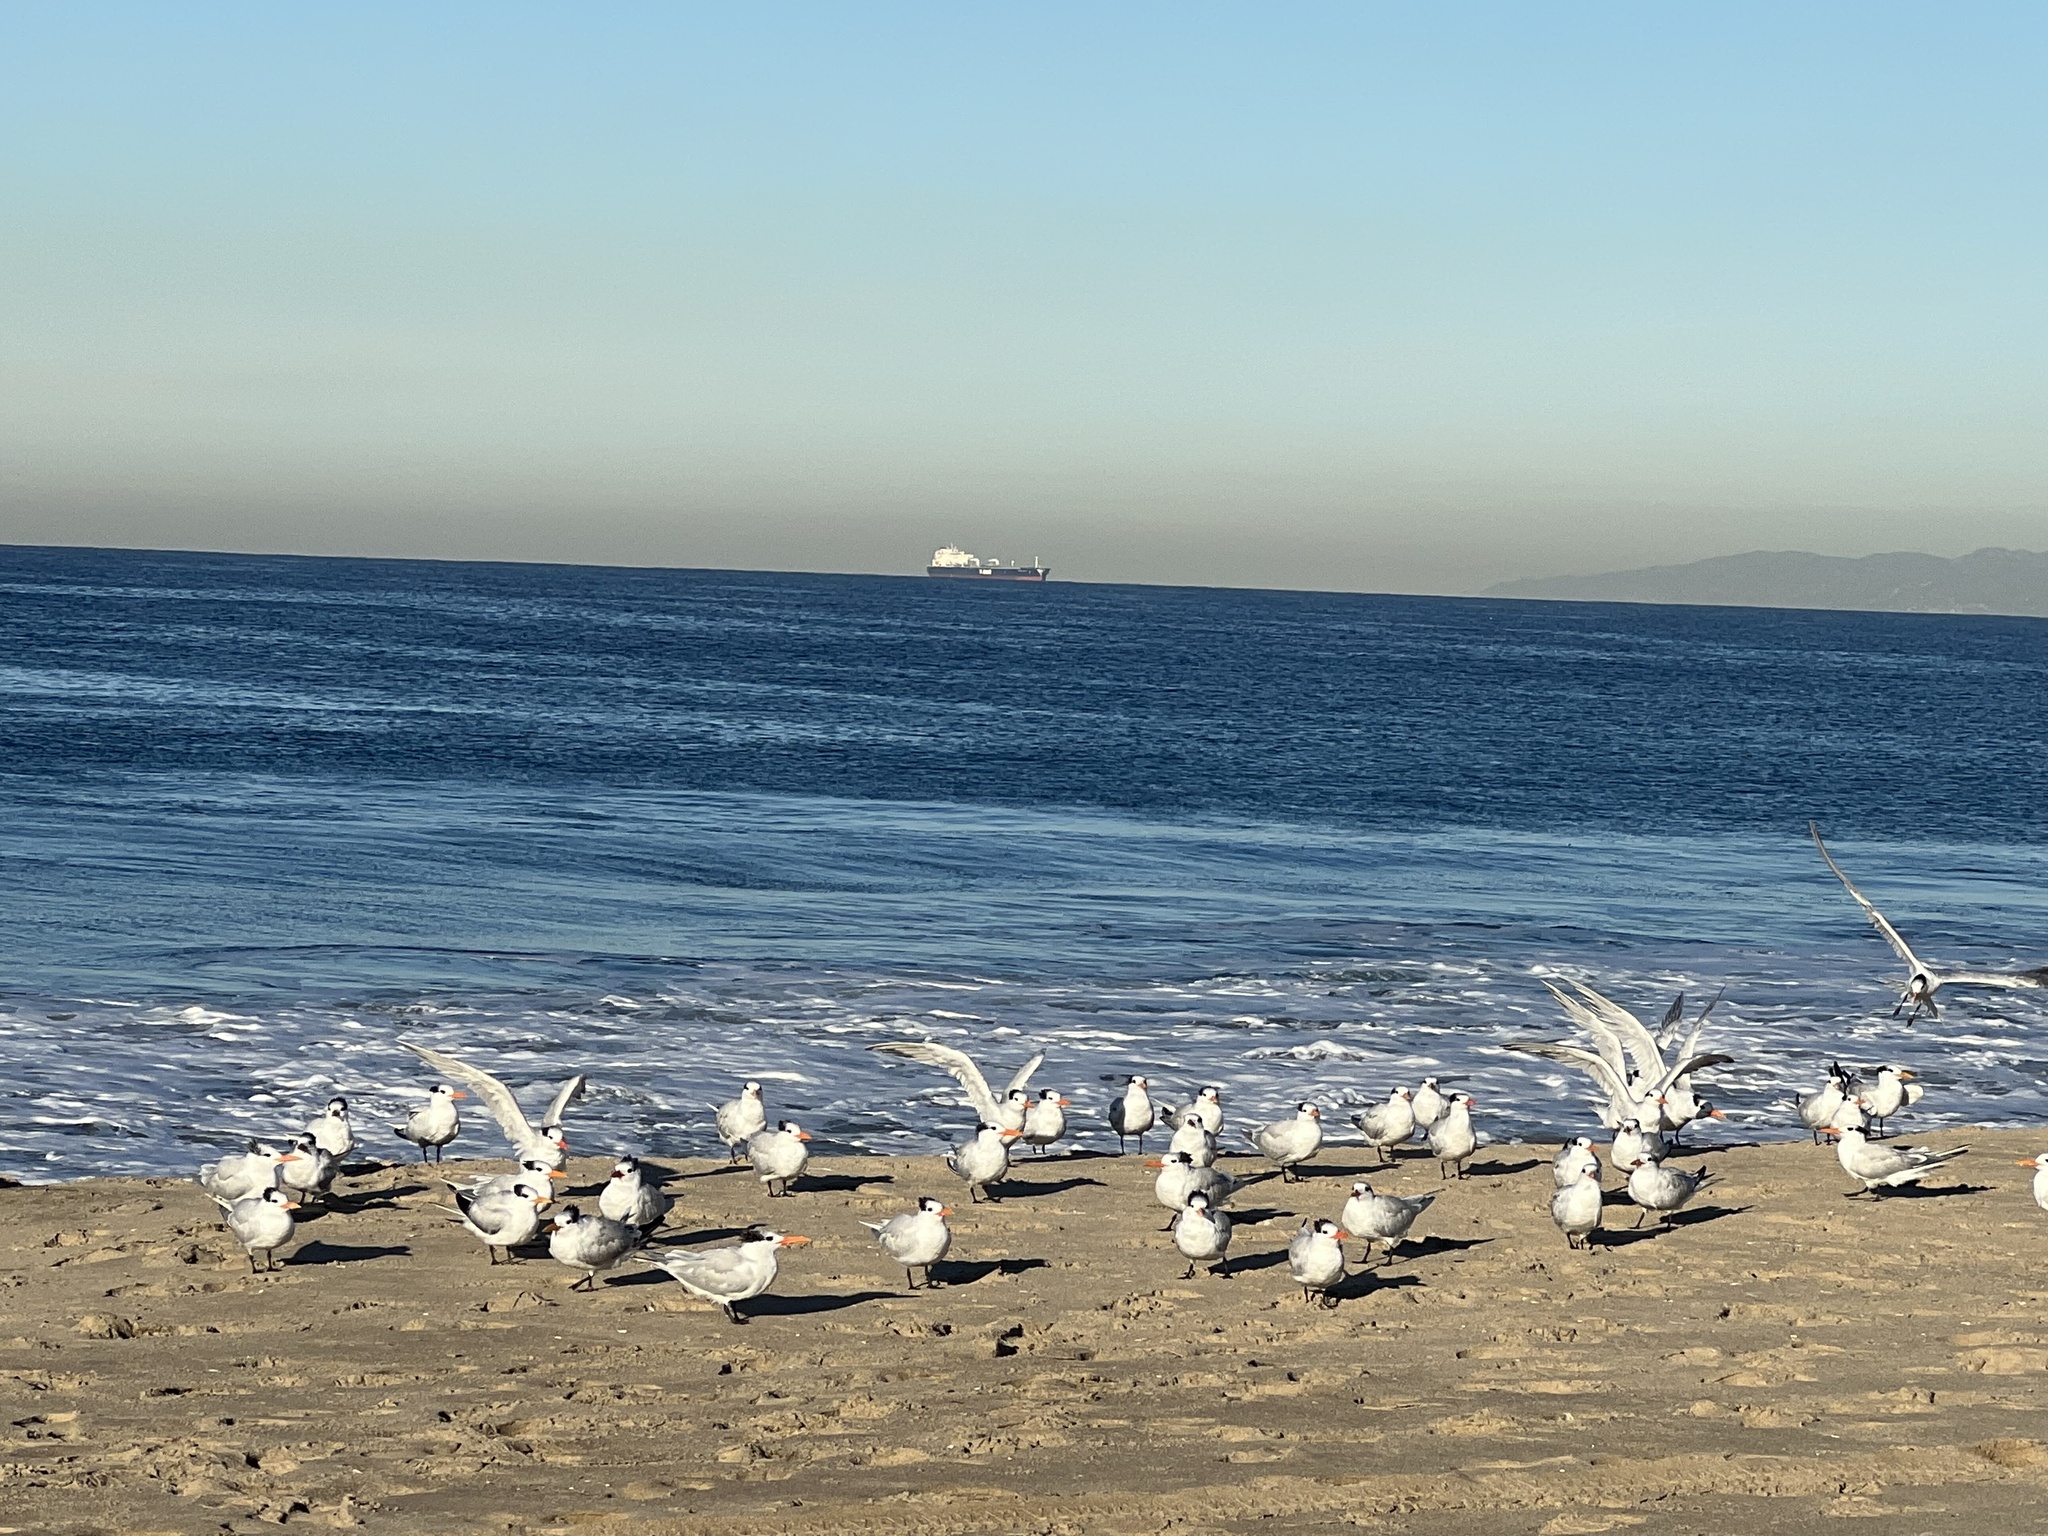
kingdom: Animalia
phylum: Chordata
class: Aves
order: Charadriiformes
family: Laridae
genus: Thalasseus
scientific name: Thalasseus maximus
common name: Royal tern
